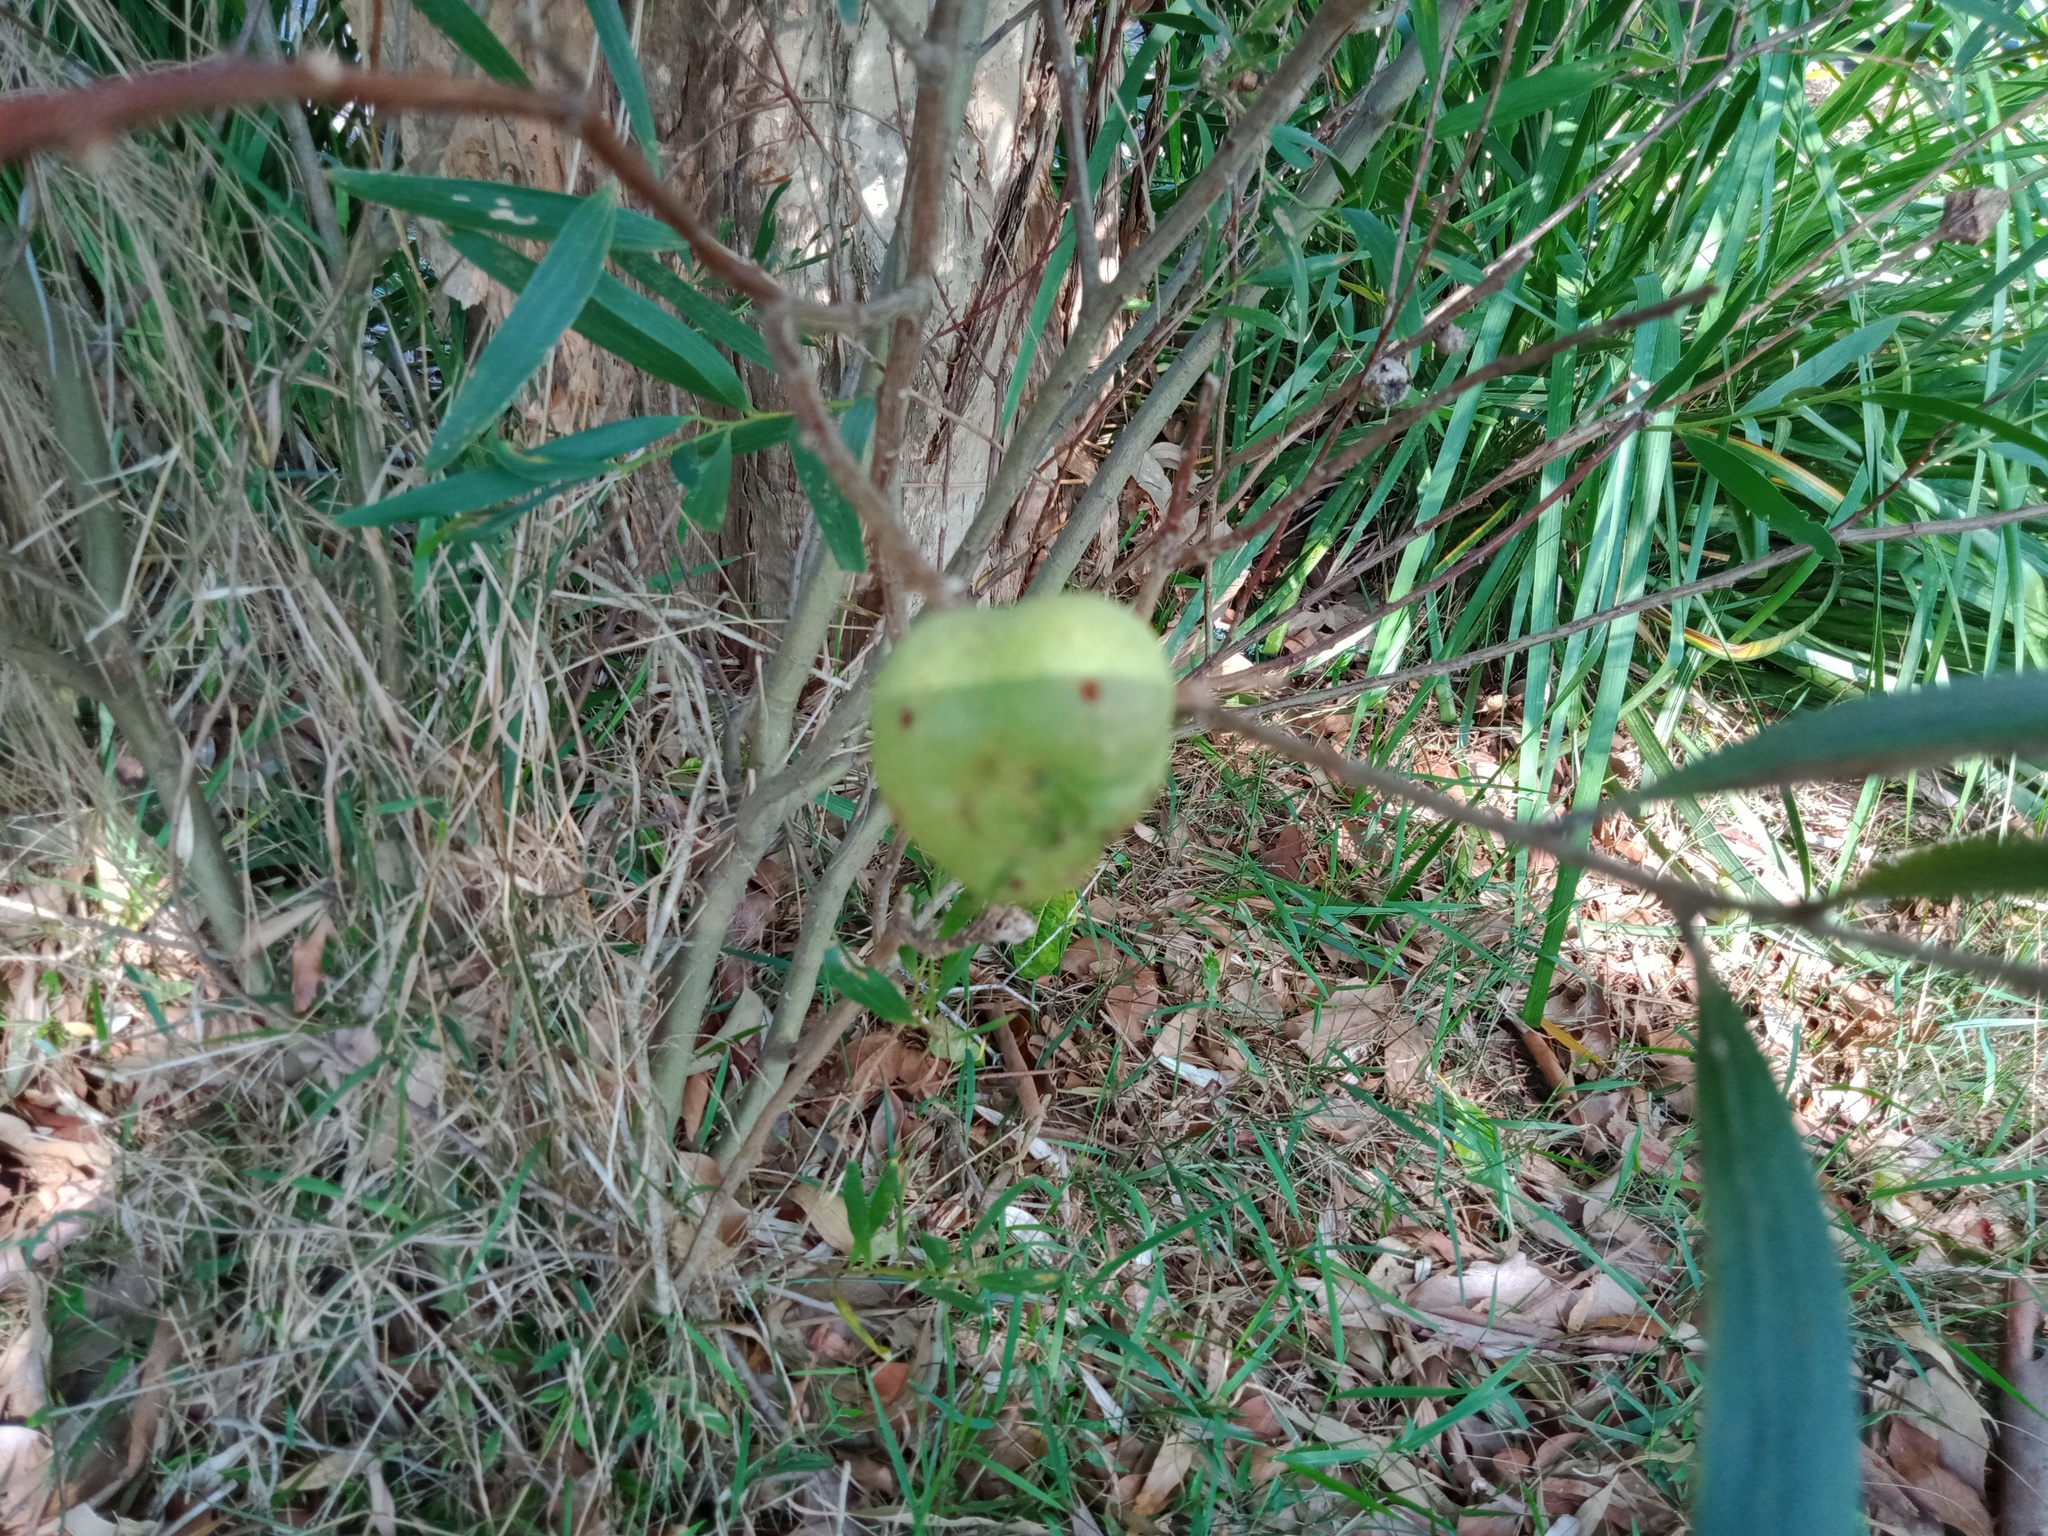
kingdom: Plantae
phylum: Tracheophyta
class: Magnoliopsida
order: Fabales
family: Fabaceae
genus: Acacia
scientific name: Acacia longifolia
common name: Sydney golden wattle
